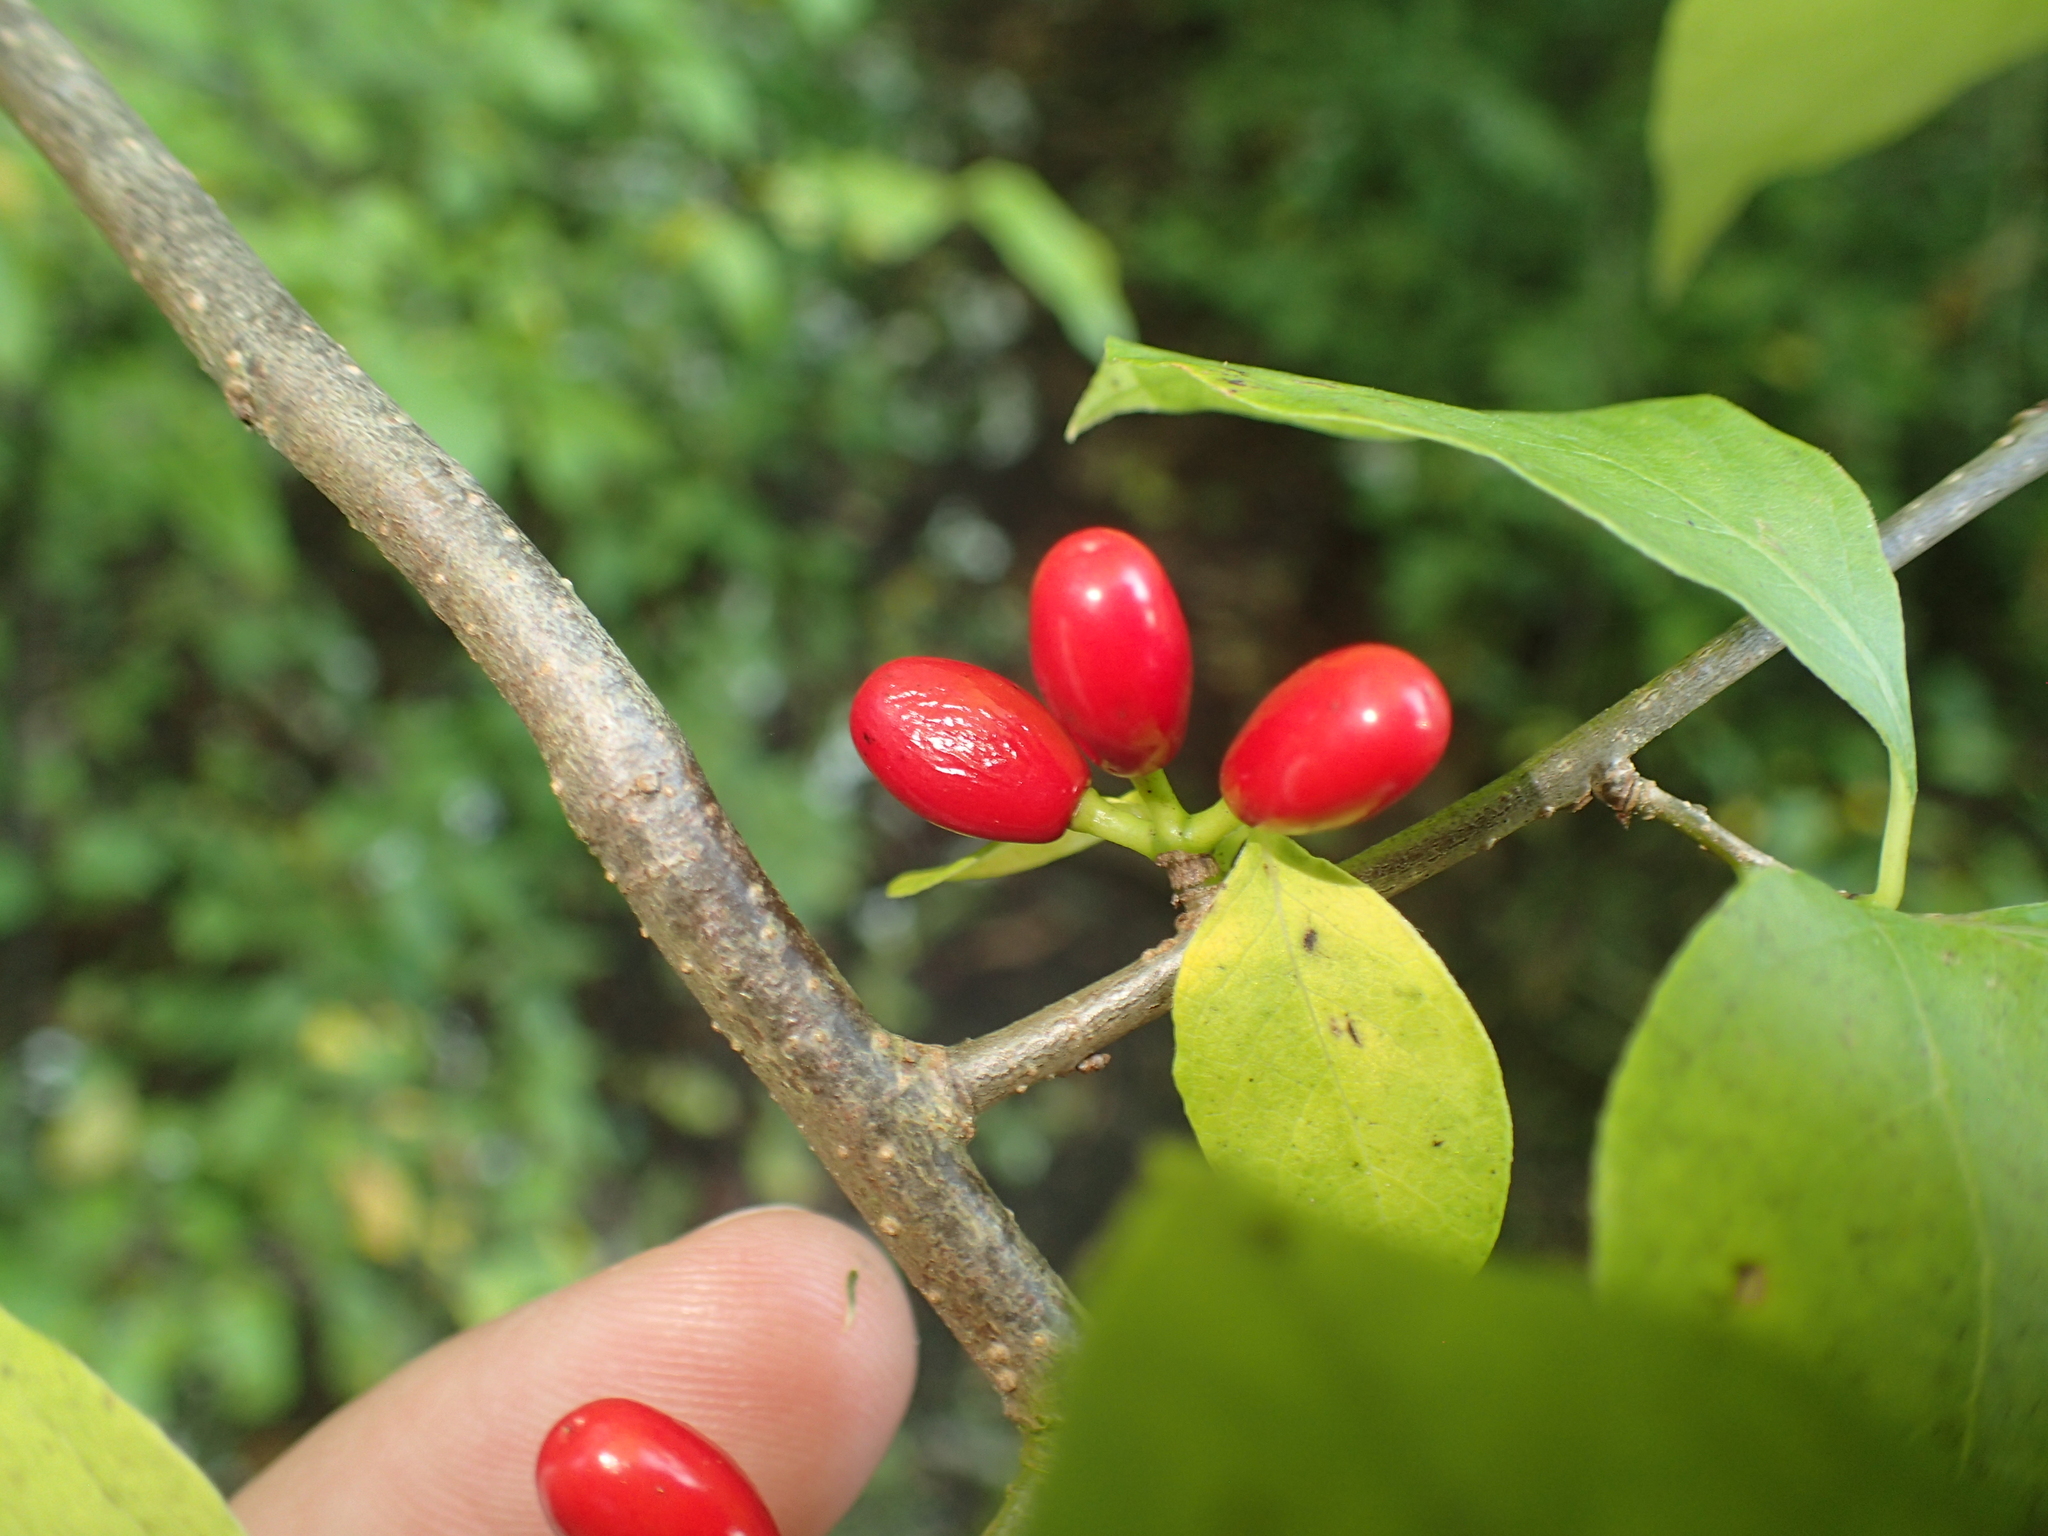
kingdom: Plantae
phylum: Tracheophyta
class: Magnoliopsida
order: Laurales
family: Lauraceae
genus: Lindera
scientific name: Lindera benzoin
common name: Spicebush
